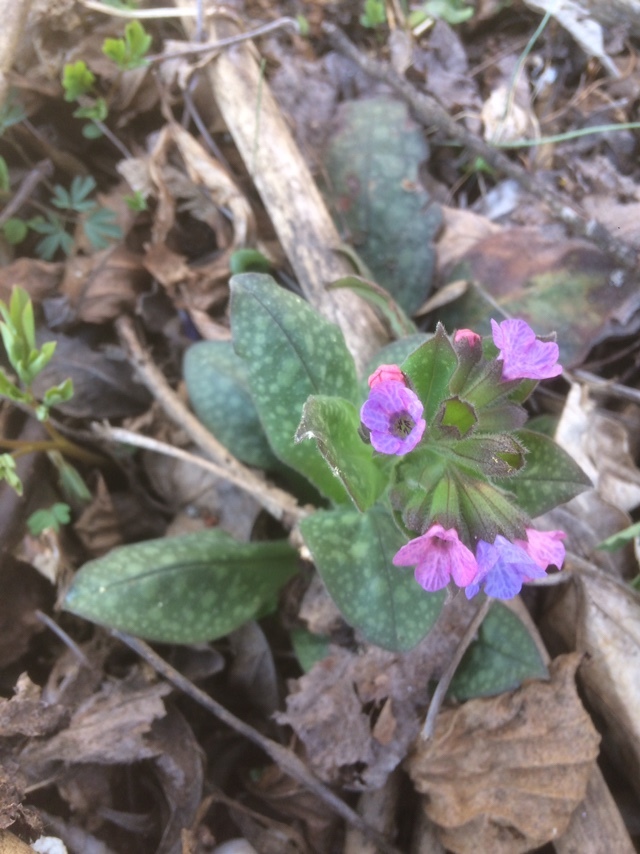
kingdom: Plantae
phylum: Tracheophyta
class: Magnoliopsida
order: Boraginales
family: Boraginaceae
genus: Pulmonaria
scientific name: Pulmonaria officinalis
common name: Lungwort
